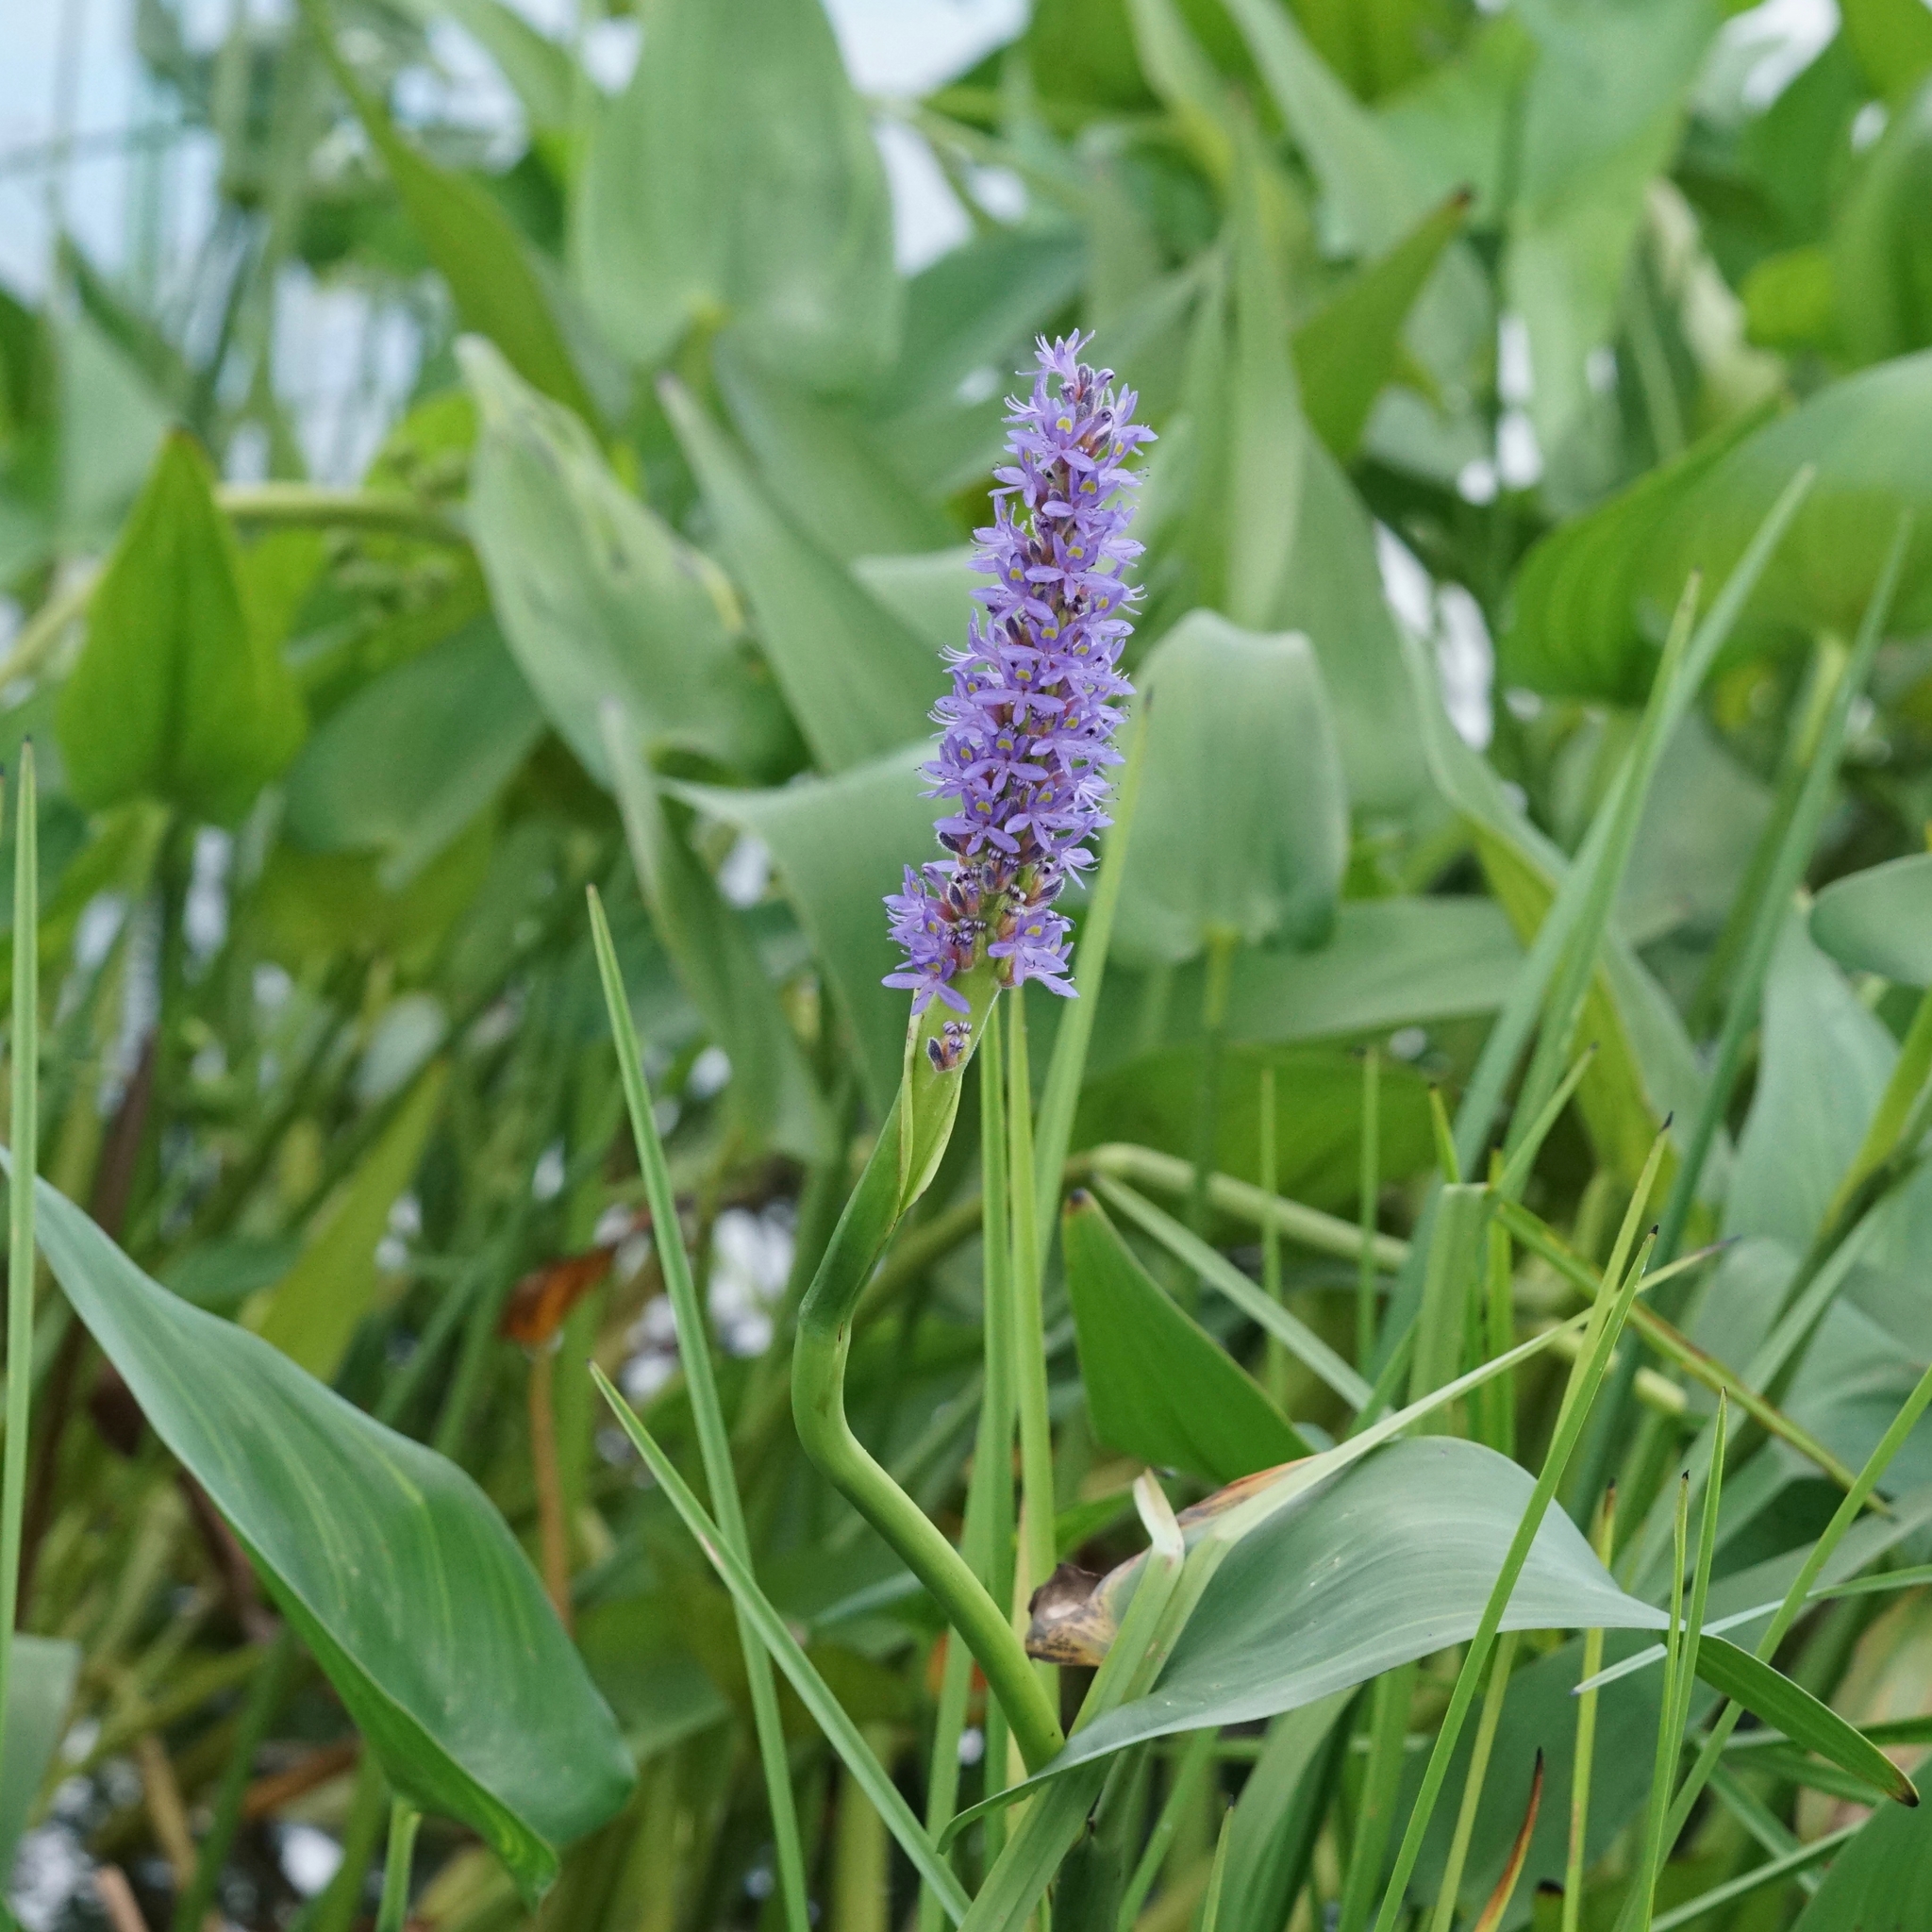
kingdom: Plantae
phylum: Tracheophyta
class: Liliopsida
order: Commelinales
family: Pontederiaceae
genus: Pontederia
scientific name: Pontederia cordata
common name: Pickerelweed
